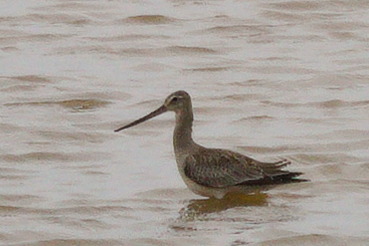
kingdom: Animalia
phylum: Chordata
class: Aves
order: Charadriiformes
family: Scolopacidae
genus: Limosa
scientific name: Limosa haemastica
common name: Hudsonian godwit
